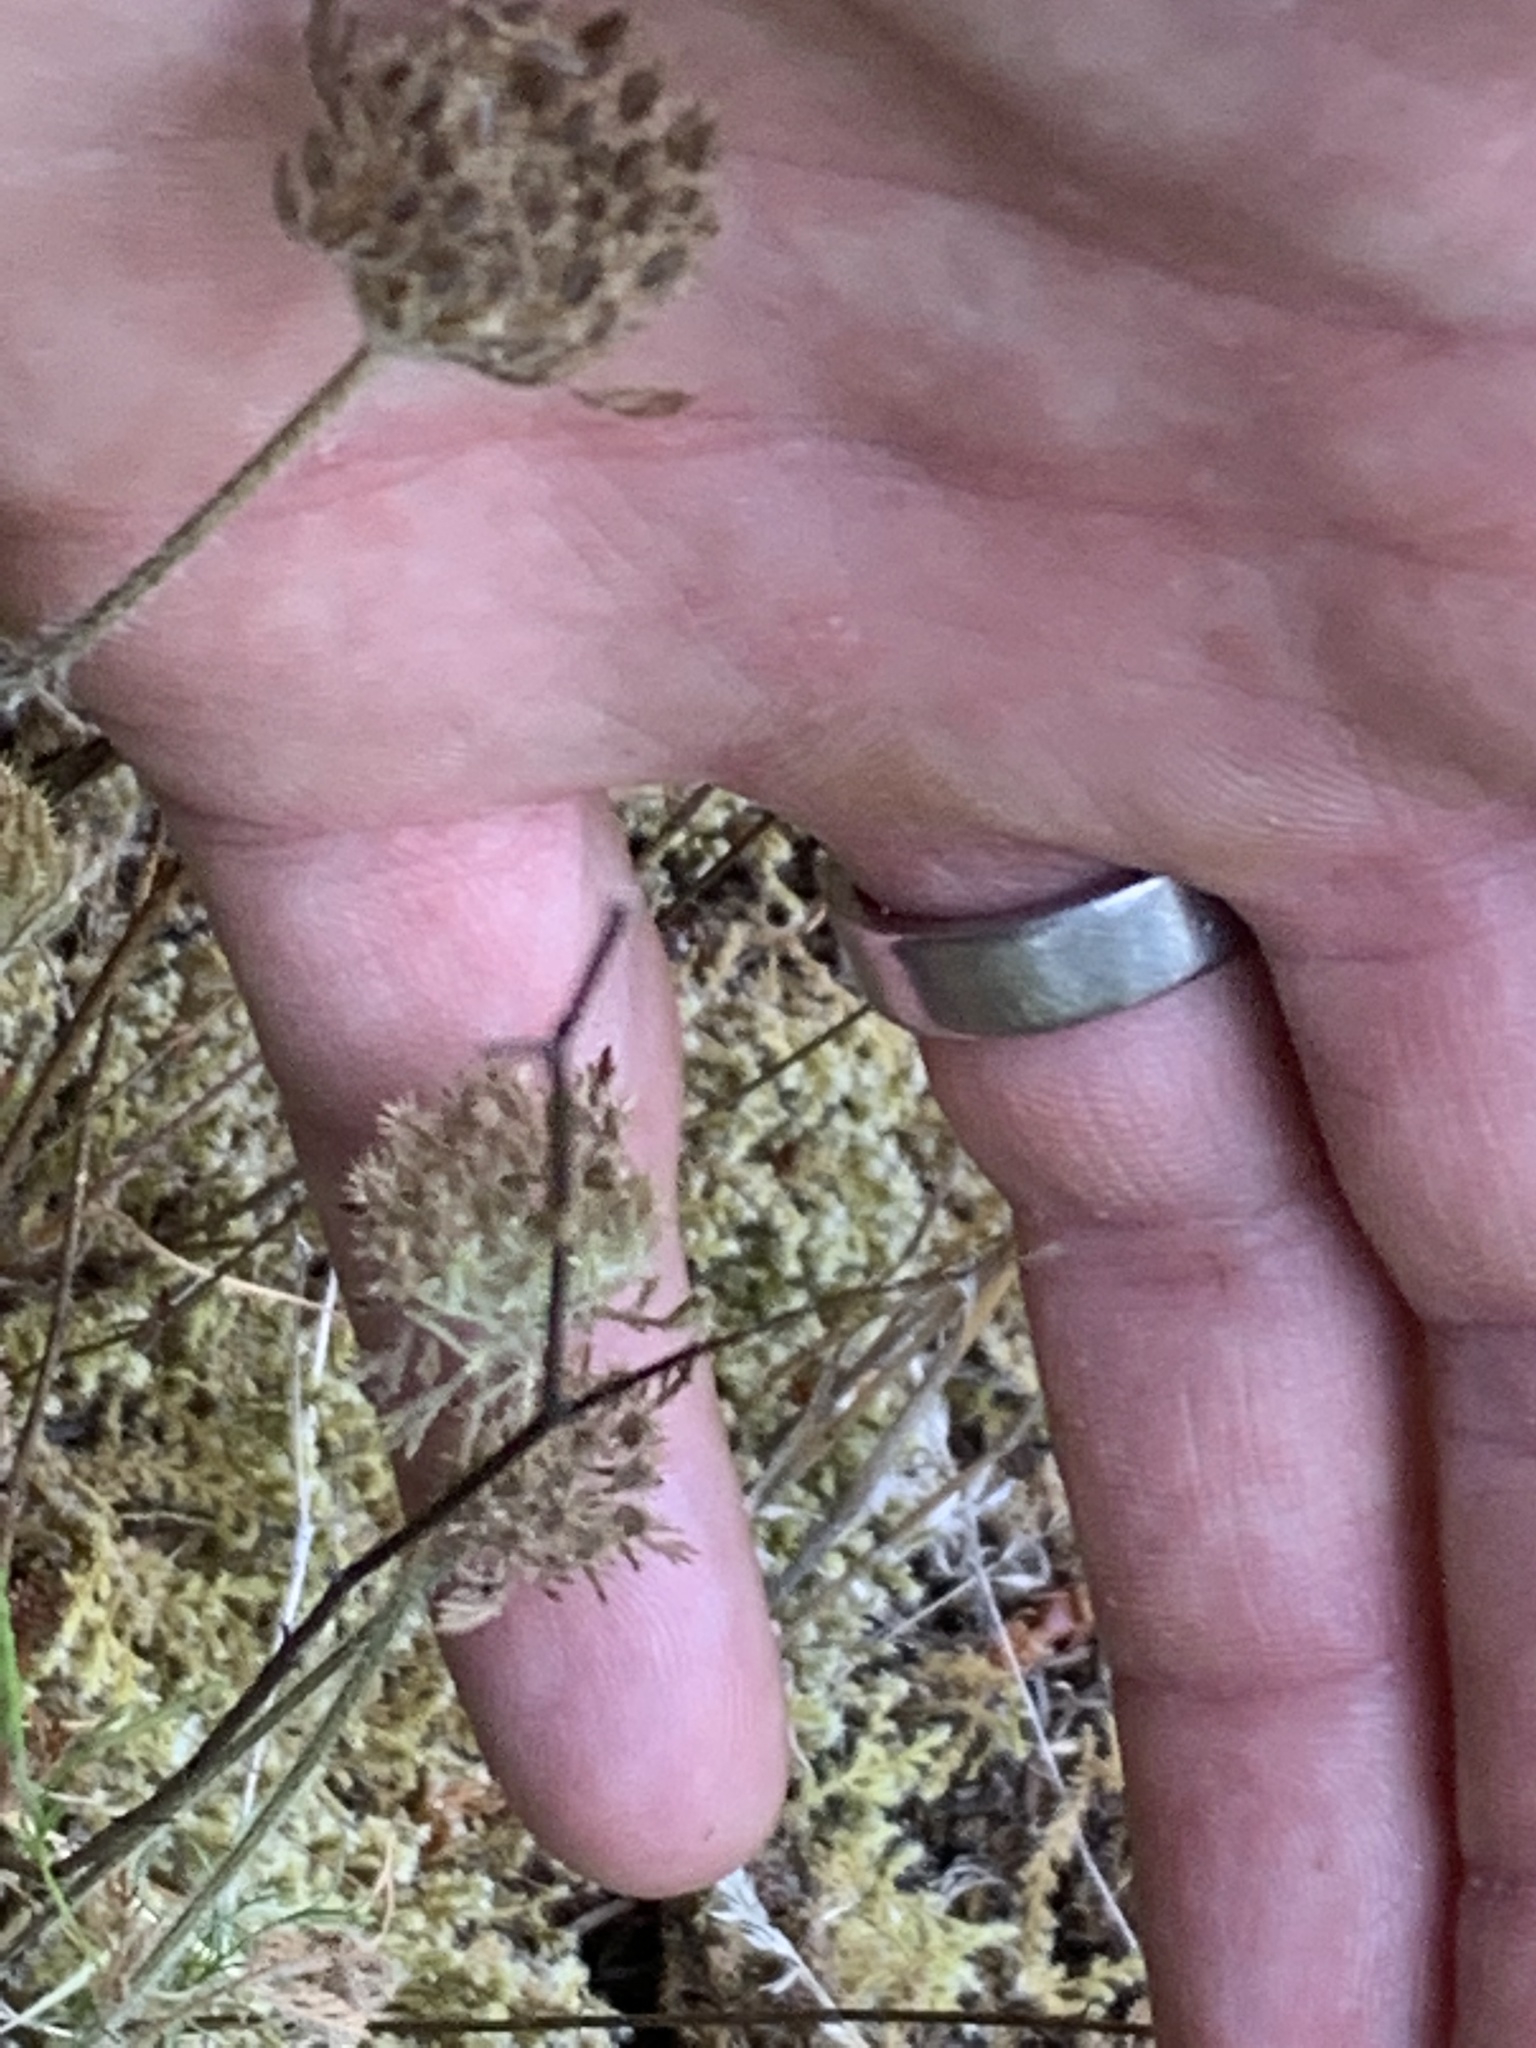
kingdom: Plantae
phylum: Tracheophyta
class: Magnoliopsida
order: Apiales
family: Apiaceae
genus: Daucus
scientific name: Daucus pusillus
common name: Southwest wild carrot
